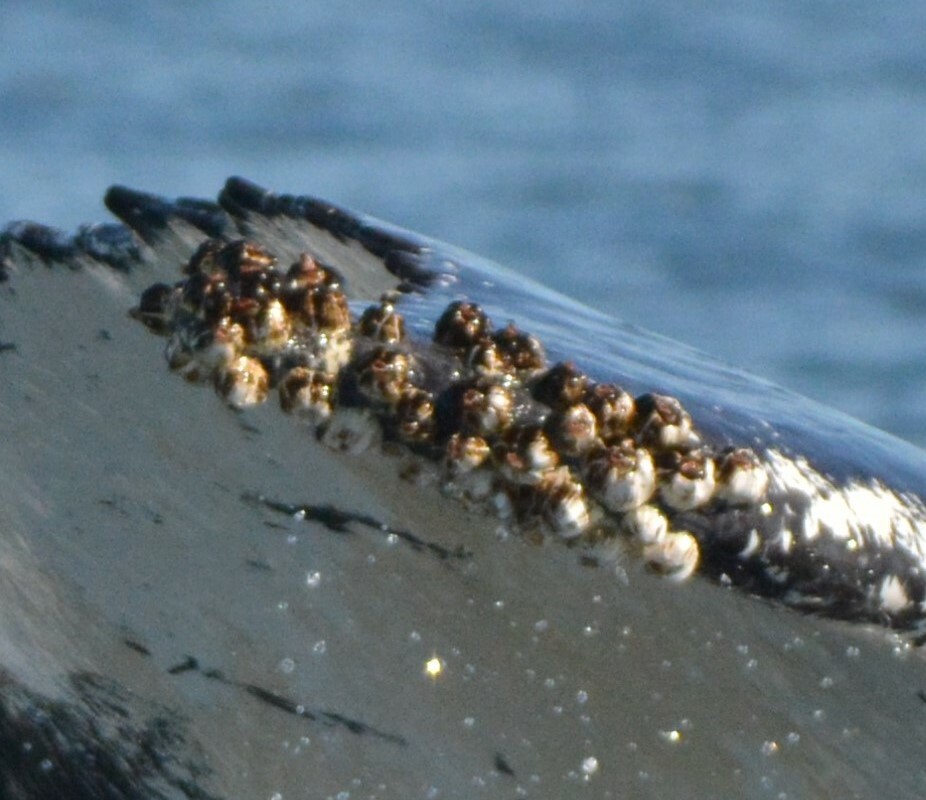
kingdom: Animalia
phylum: Arthropoda
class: Maxillopoda
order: Sessilia
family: Coronulidae
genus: Coronula
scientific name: Coronula diadema
